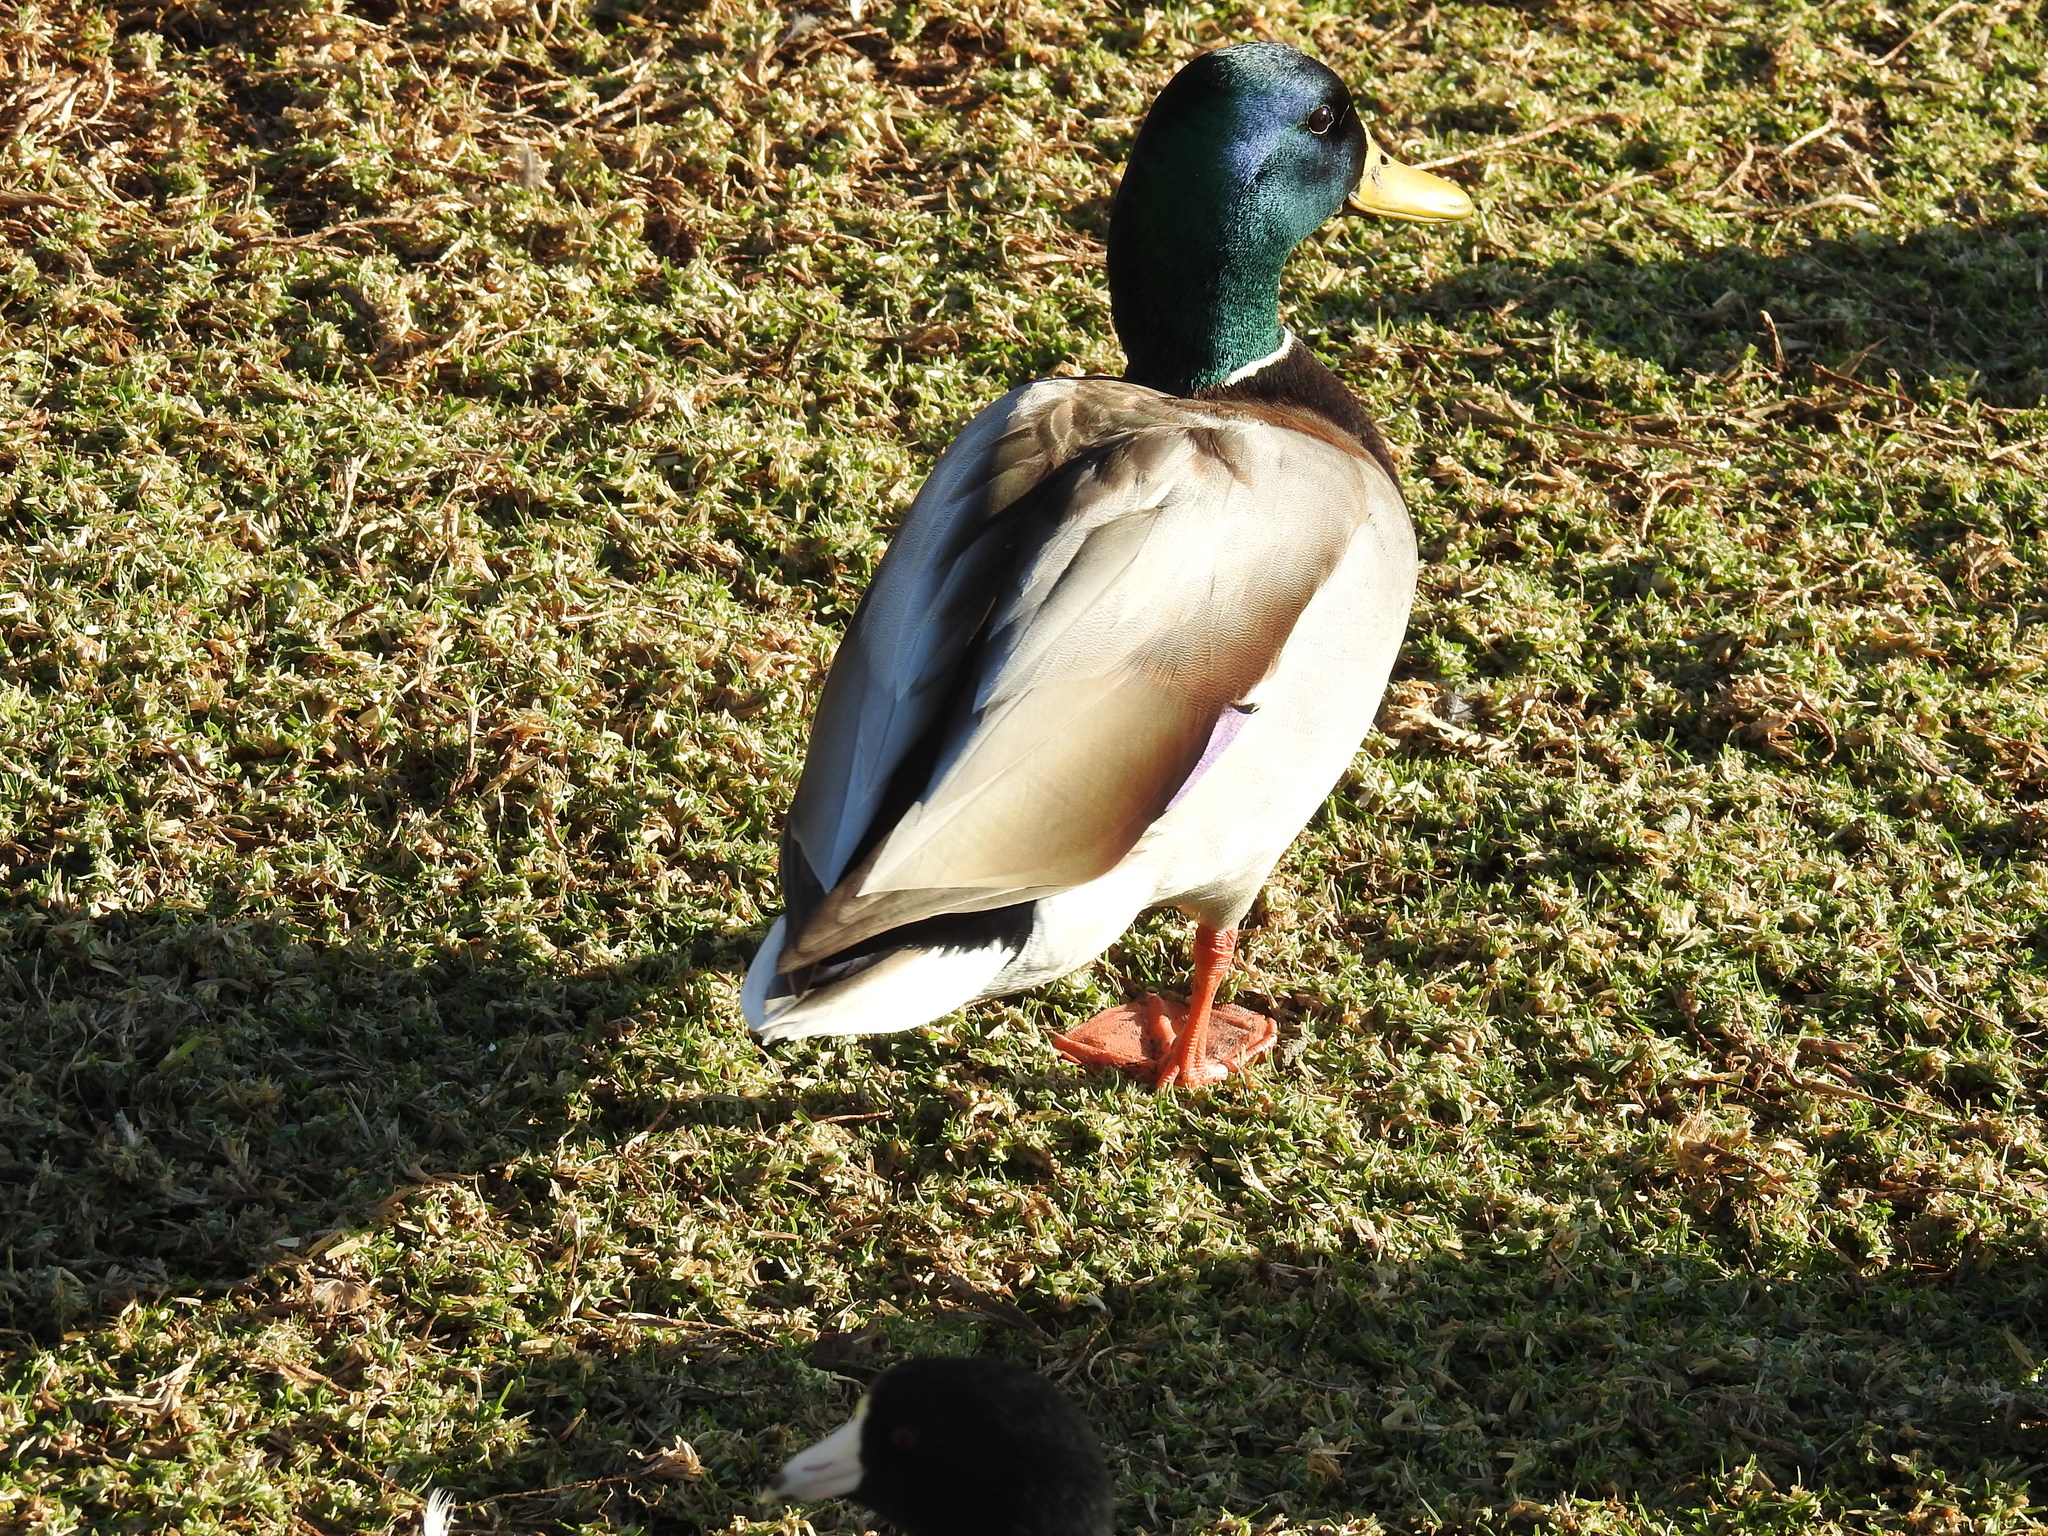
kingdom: Animalia
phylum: Chordata
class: Aves
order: Anseriformes
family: Anatidae
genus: Anas
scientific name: Anas platyrhynchos
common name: Mallard
